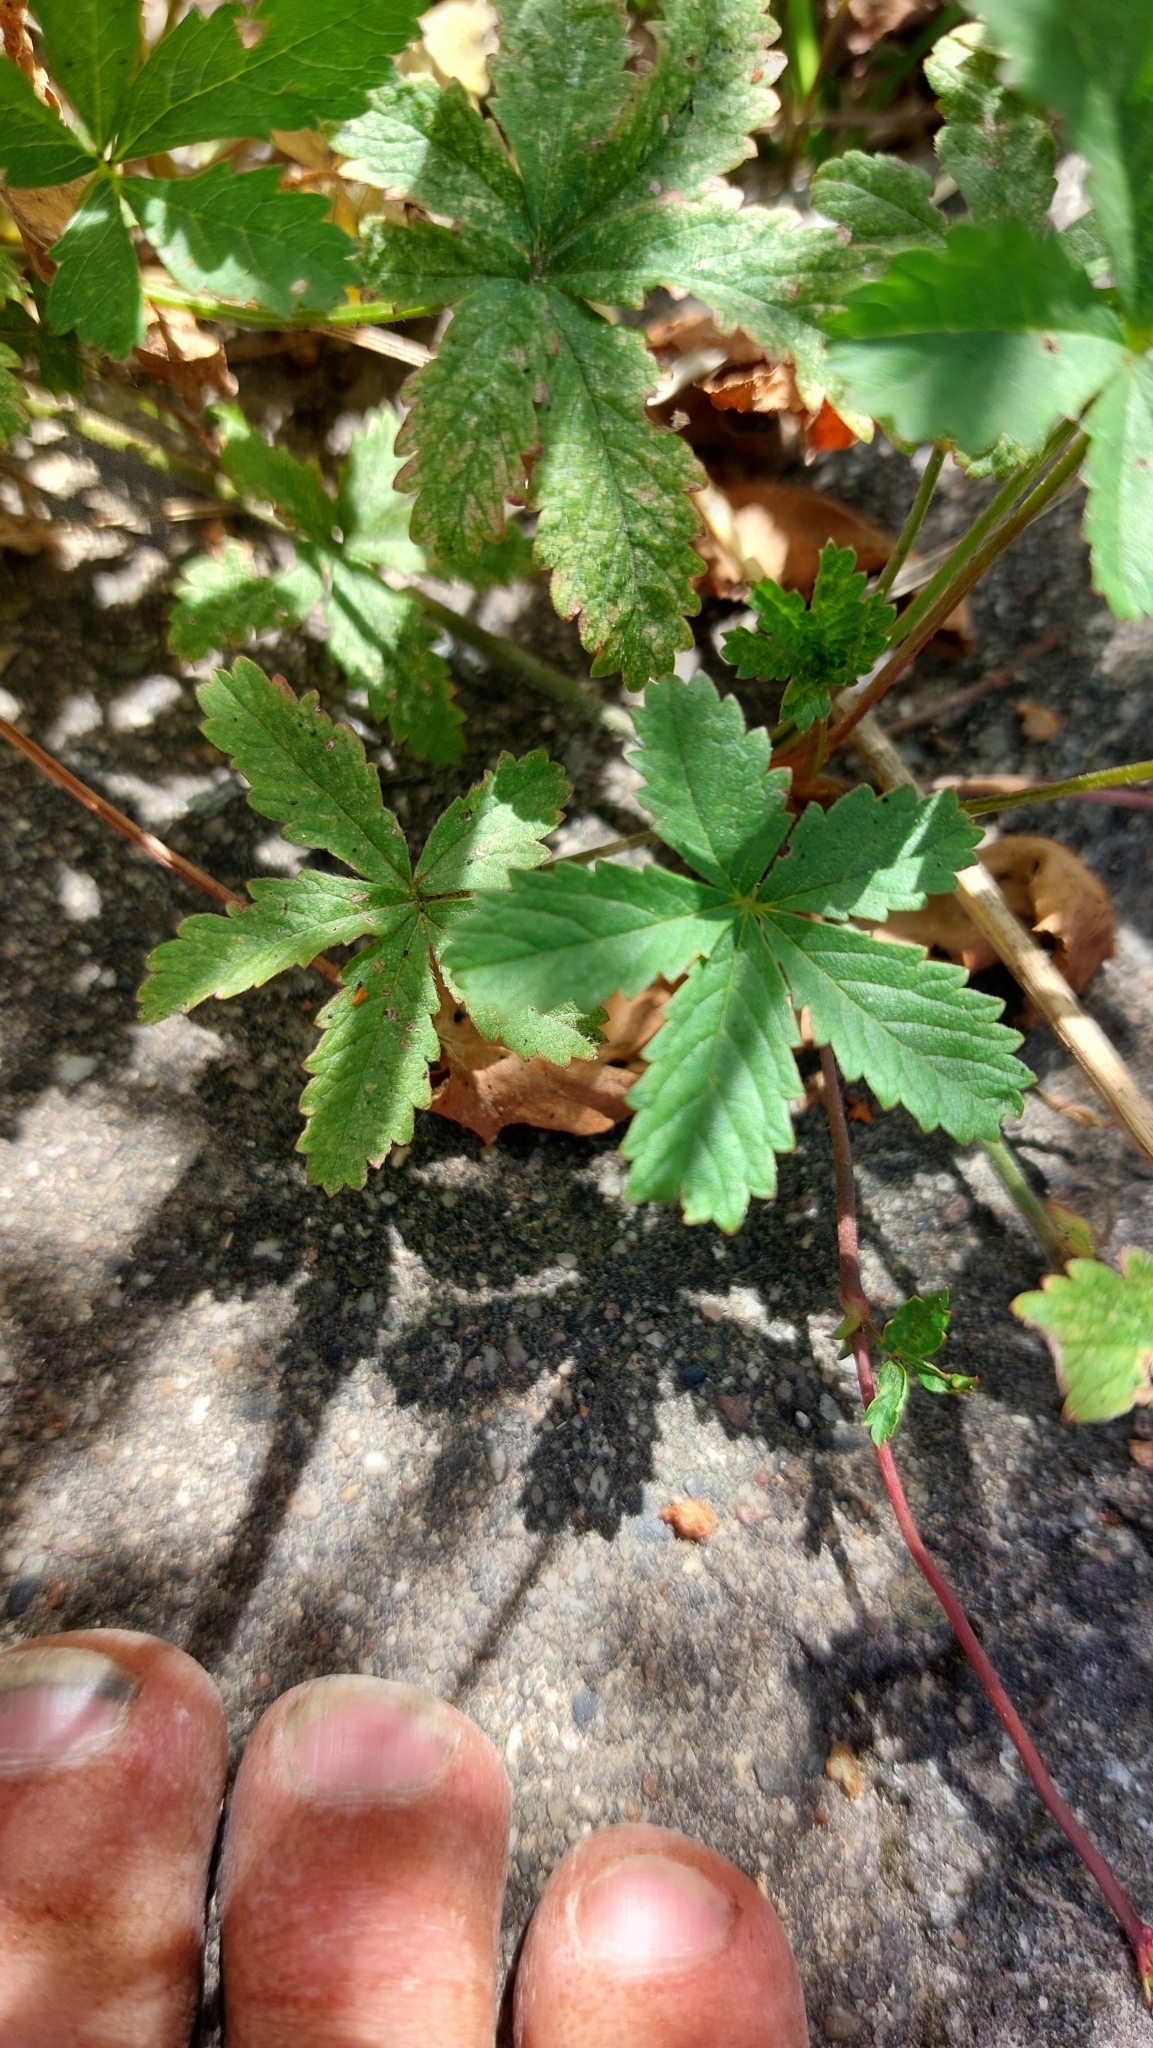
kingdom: Plantae
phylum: Tracheophyta
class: Magnoliopsida
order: Rosales
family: Rosaceae
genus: Potentilla
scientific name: Potentilla reptans
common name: Creeping cinquefoil
